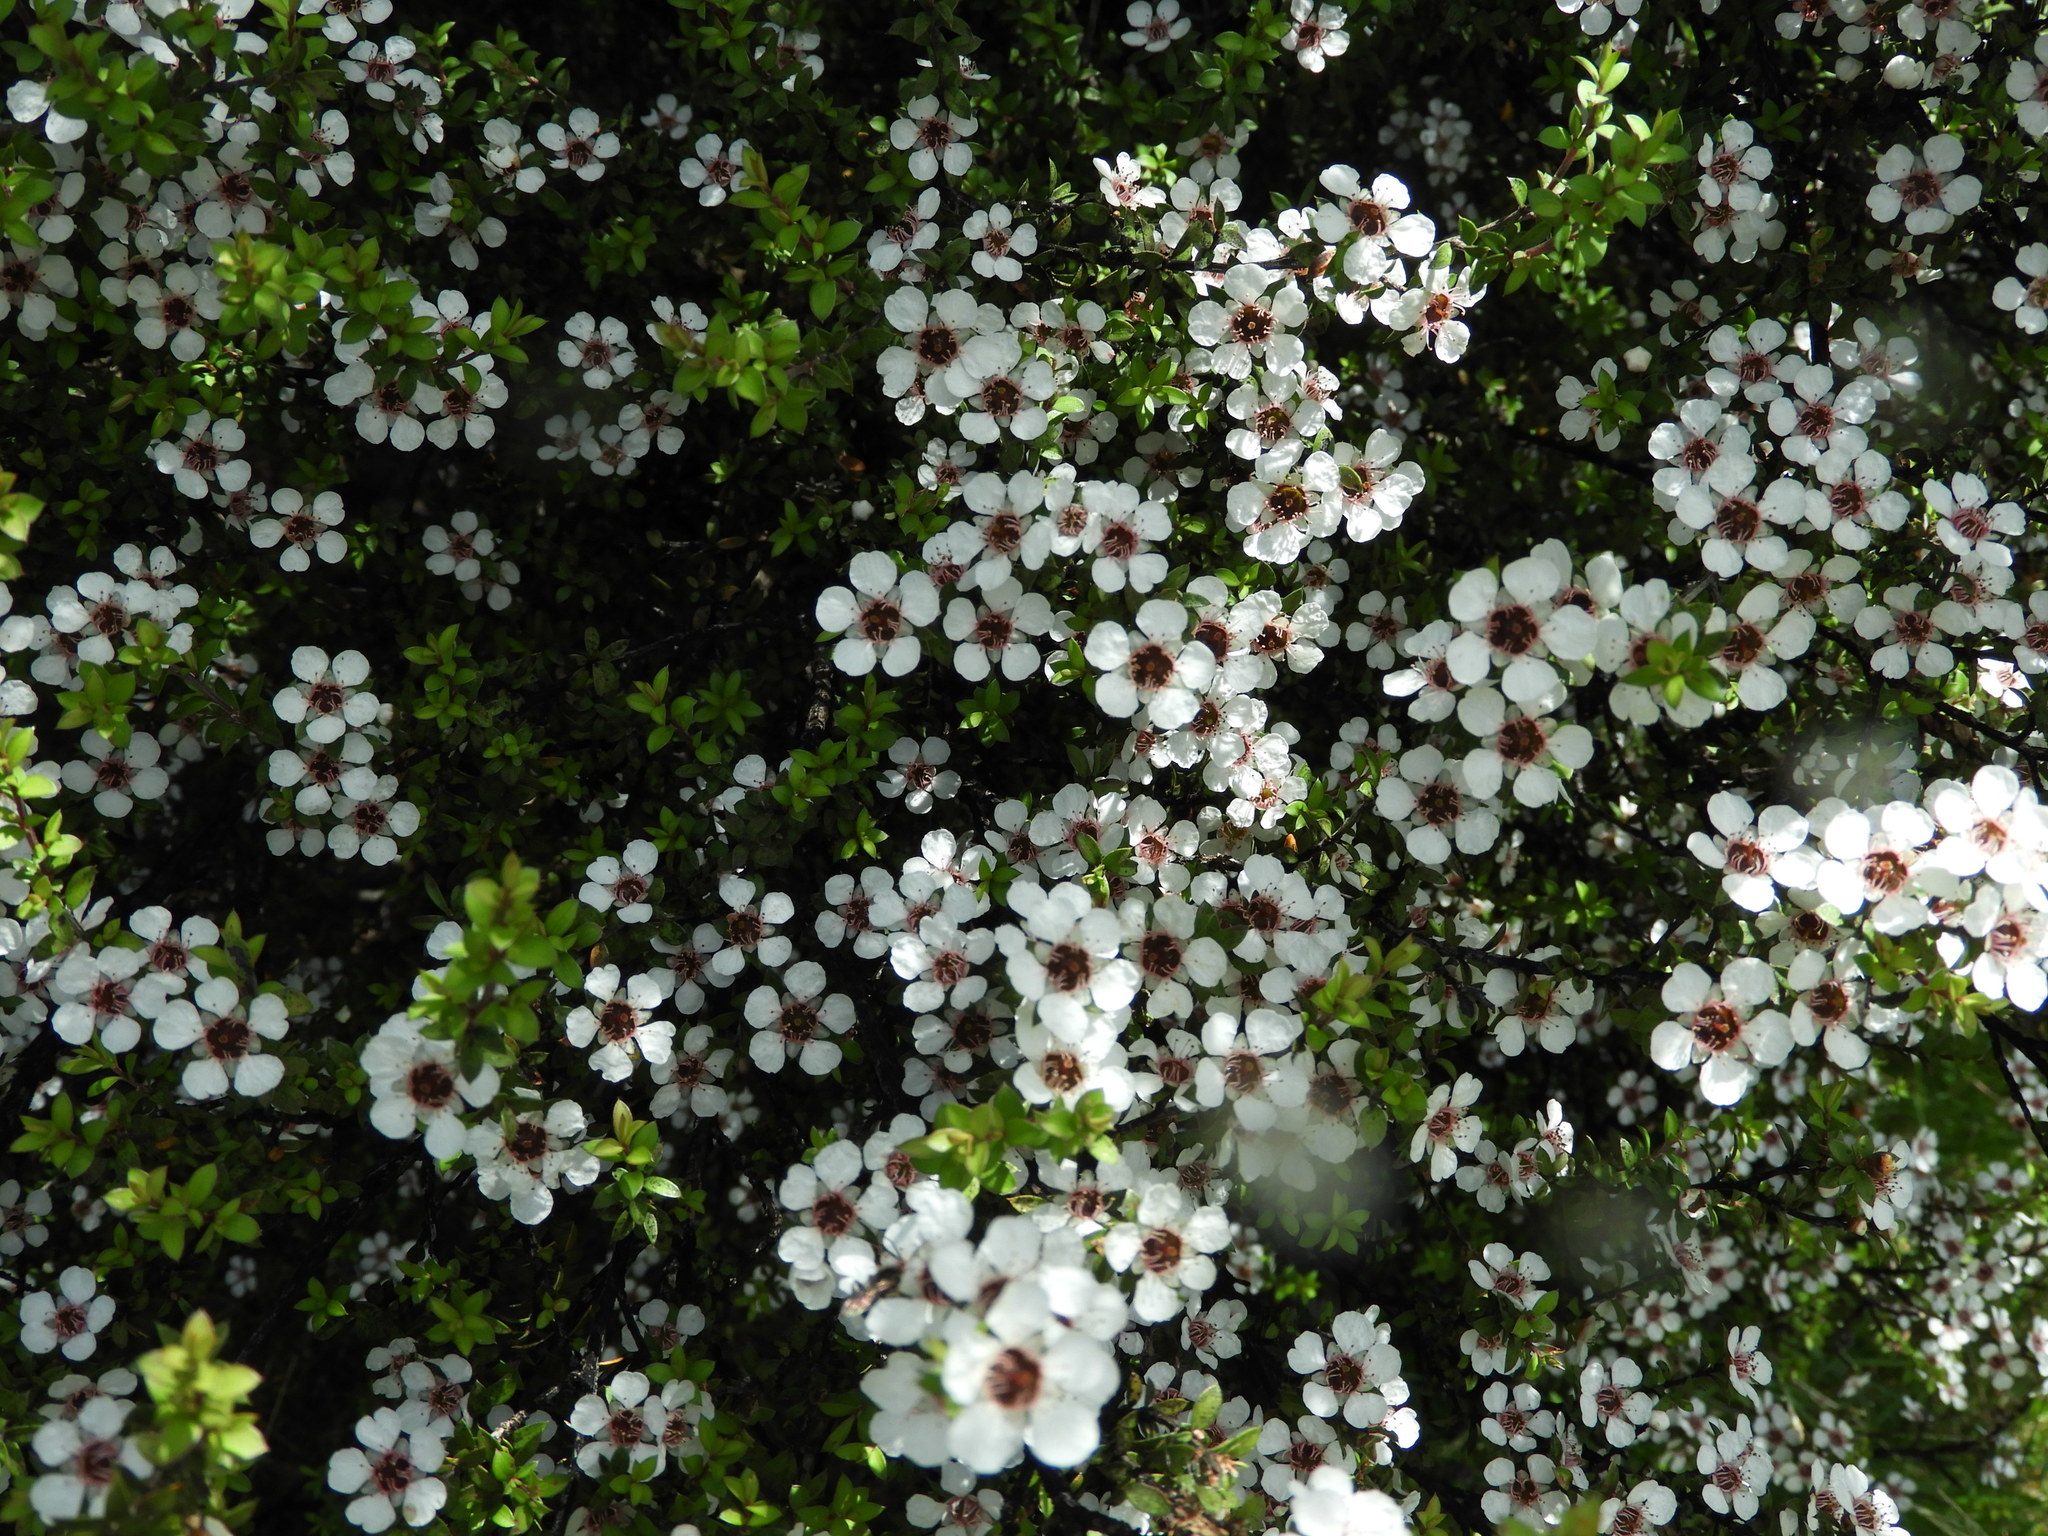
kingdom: Plantae
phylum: Tracheophyta
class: Magnoliopsida
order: Myrtales
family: Myrtaceae
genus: Leptospermum
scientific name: Leptospermum scoparium
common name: Broom tea-tree
